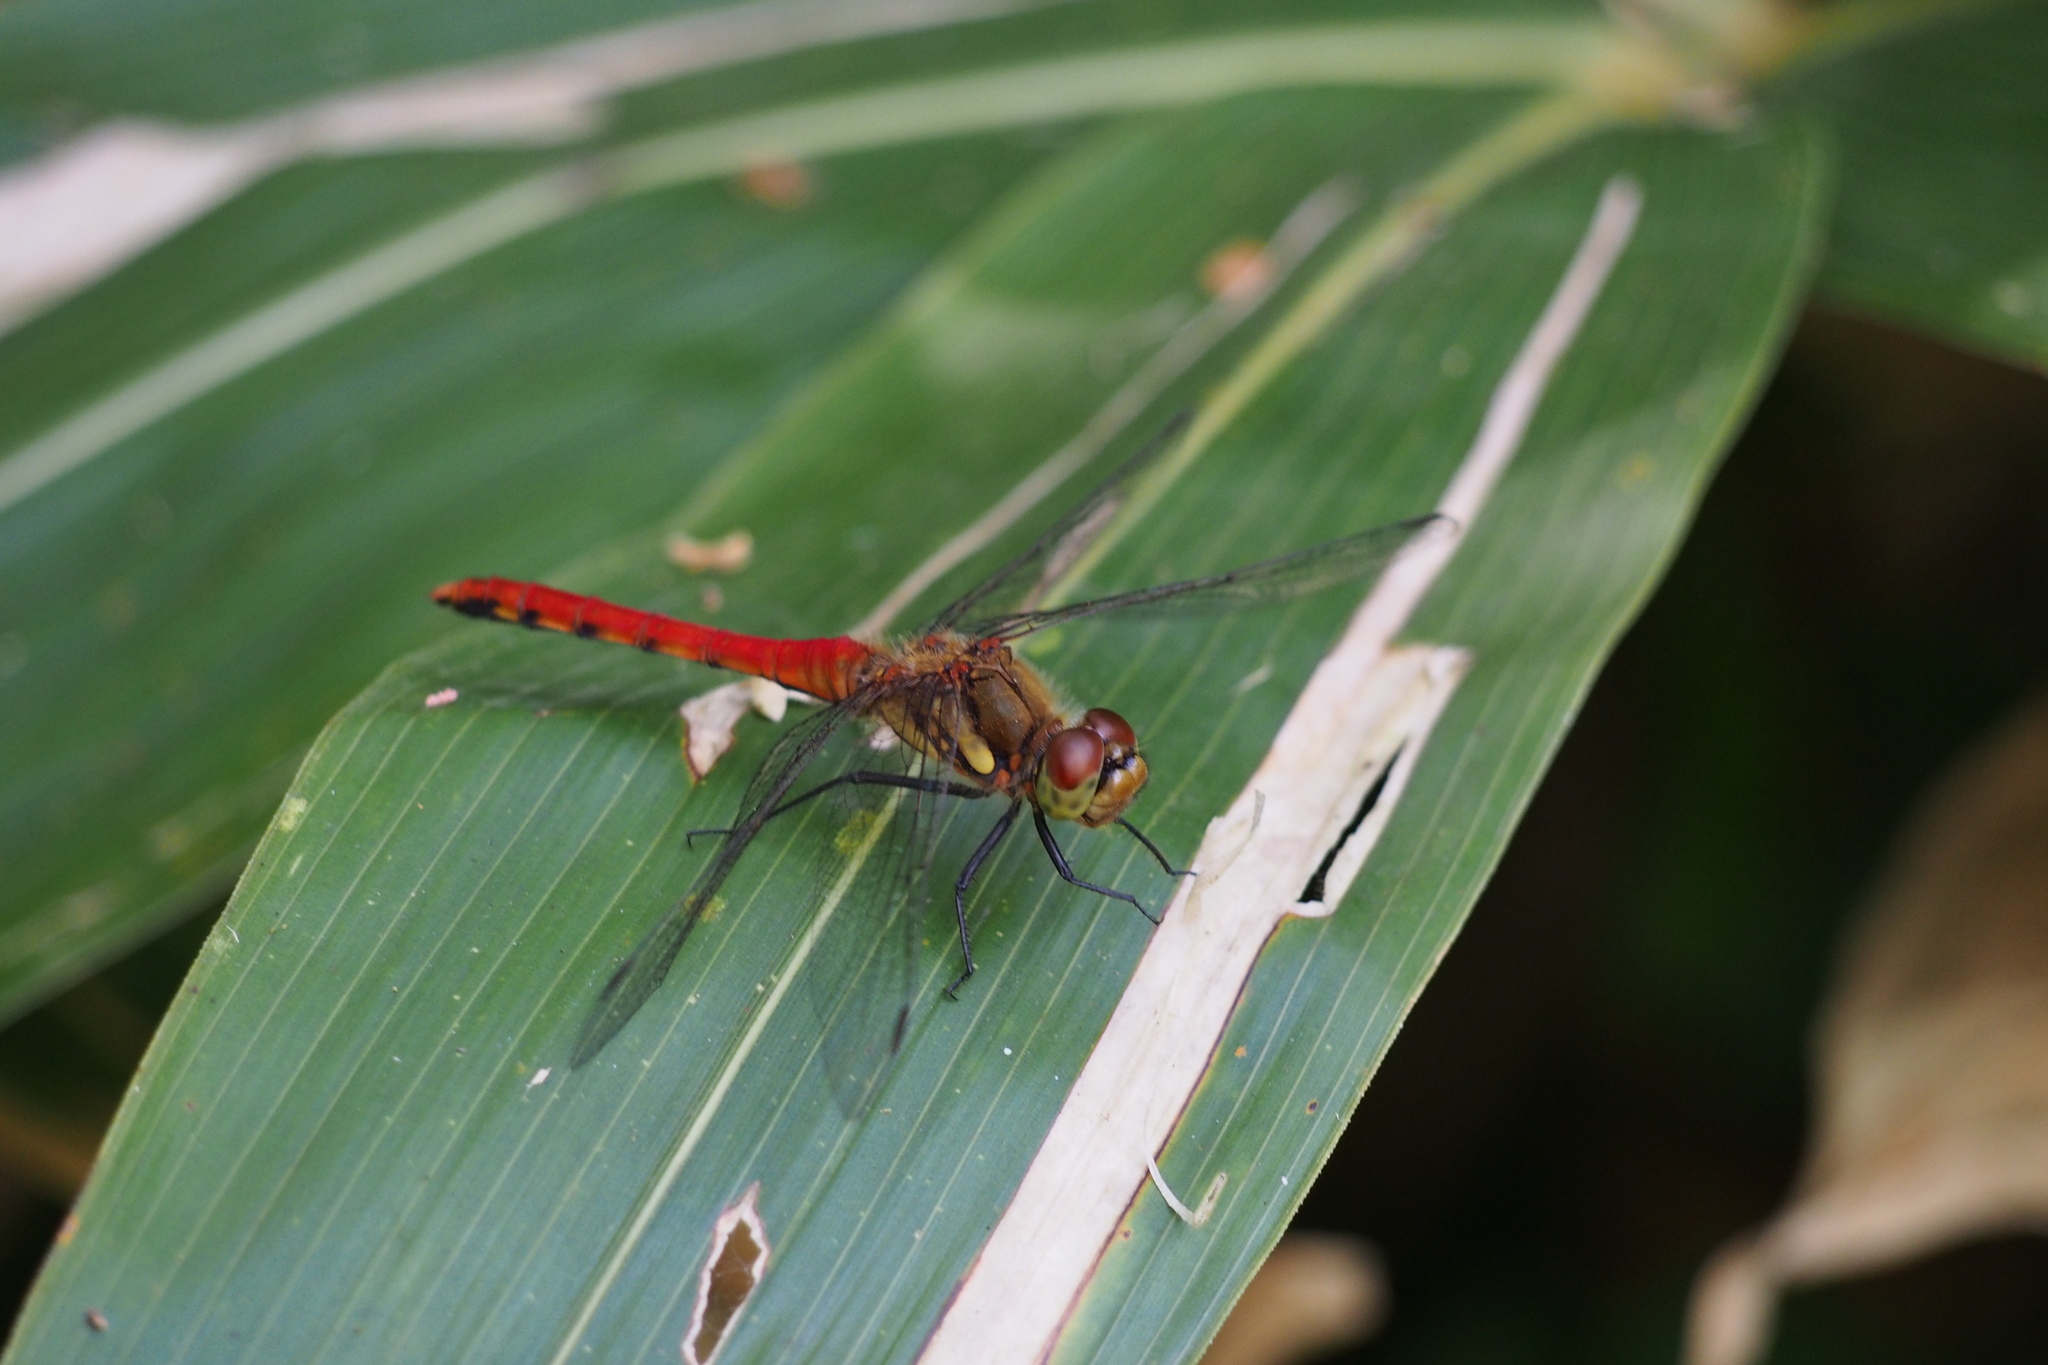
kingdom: Animalia
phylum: Arthropoda
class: Insecta
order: Odonata
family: Libellulidae
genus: Sympetrum
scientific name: Sympetrum frequens
